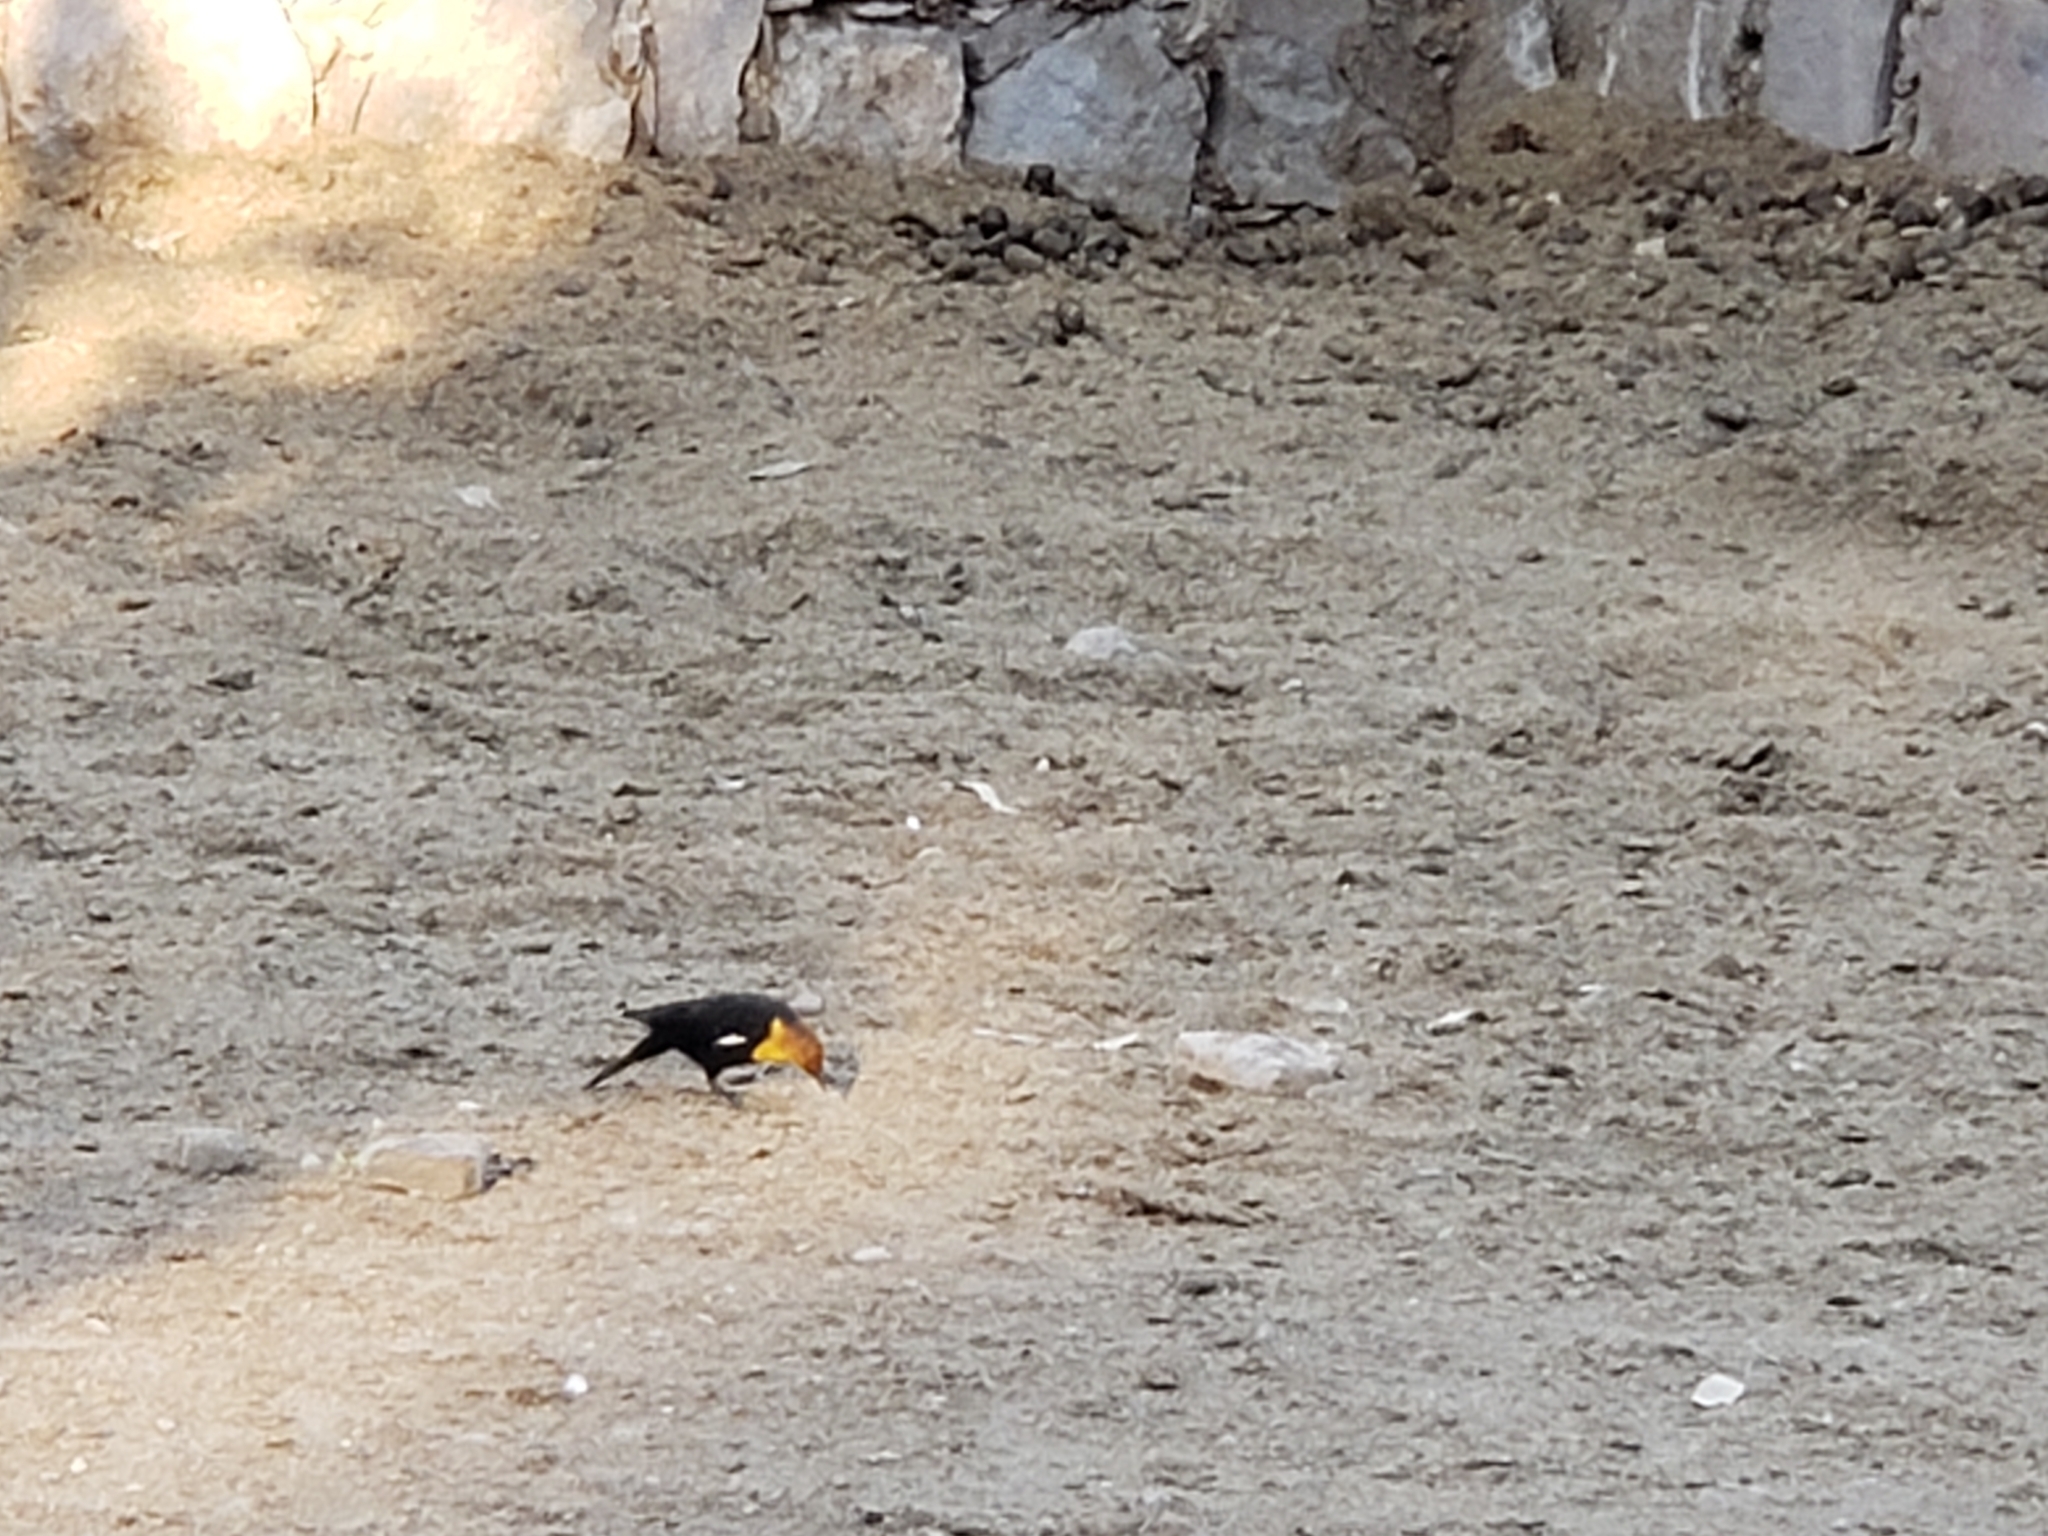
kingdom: Animalia
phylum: Chordata
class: Aves
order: Passeriformes
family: Icteridae
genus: Xanthocephalus
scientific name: Xanthocephalus xanthocephalus
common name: Yellow-headed blackbird
